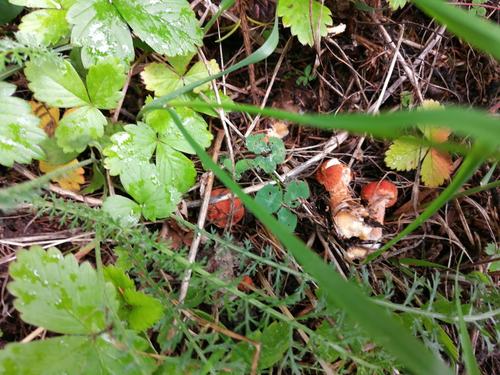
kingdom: Fungi
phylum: Basidiomycota
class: Agaricomycetes
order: Agaricales
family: Agaricaceae
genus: Cystodermella
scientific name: Cystodermella cinnabarina
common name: Cinnabar powdercap
